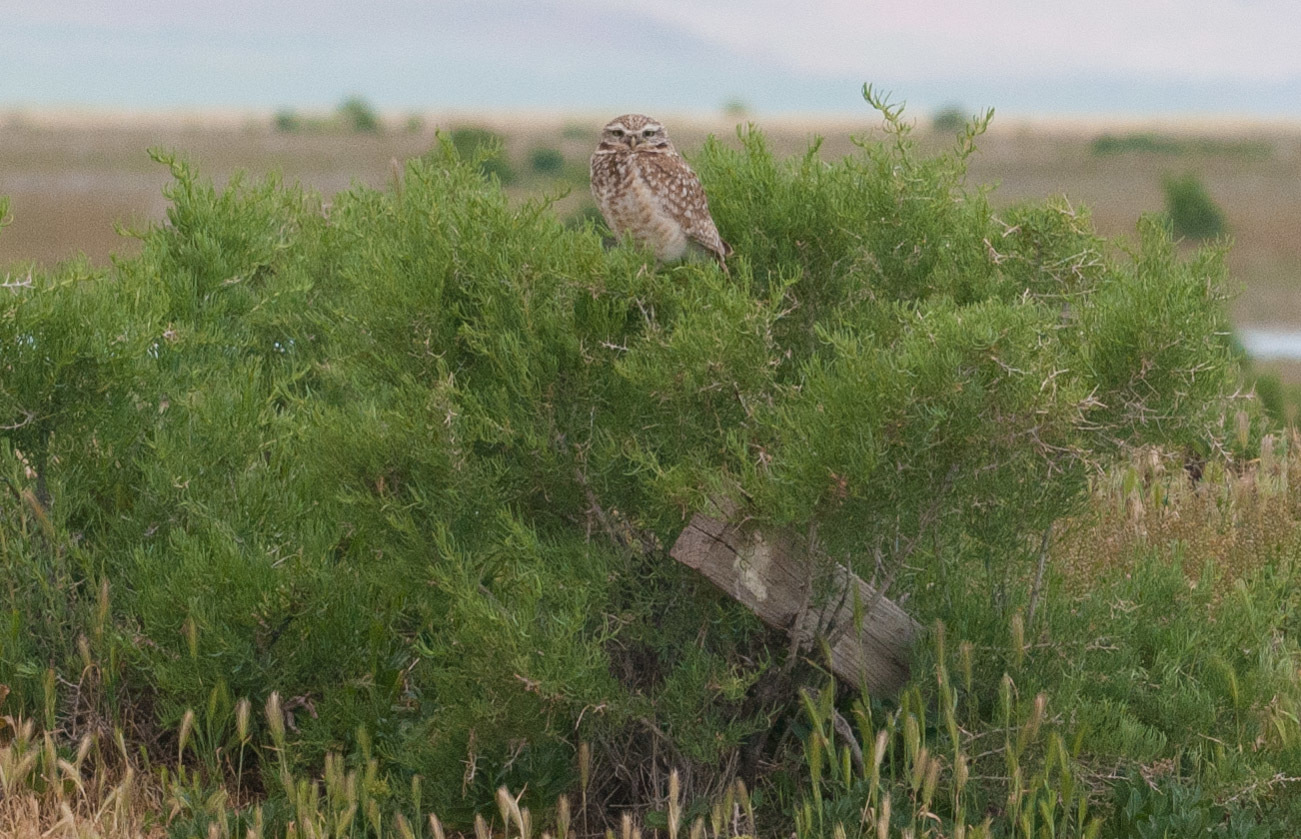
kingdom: Animalia
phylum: Chordata
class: Aves
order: Strigiformes
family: Strigidae
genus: Athene
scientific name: Athene cunicularia
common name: Burrowing owl
